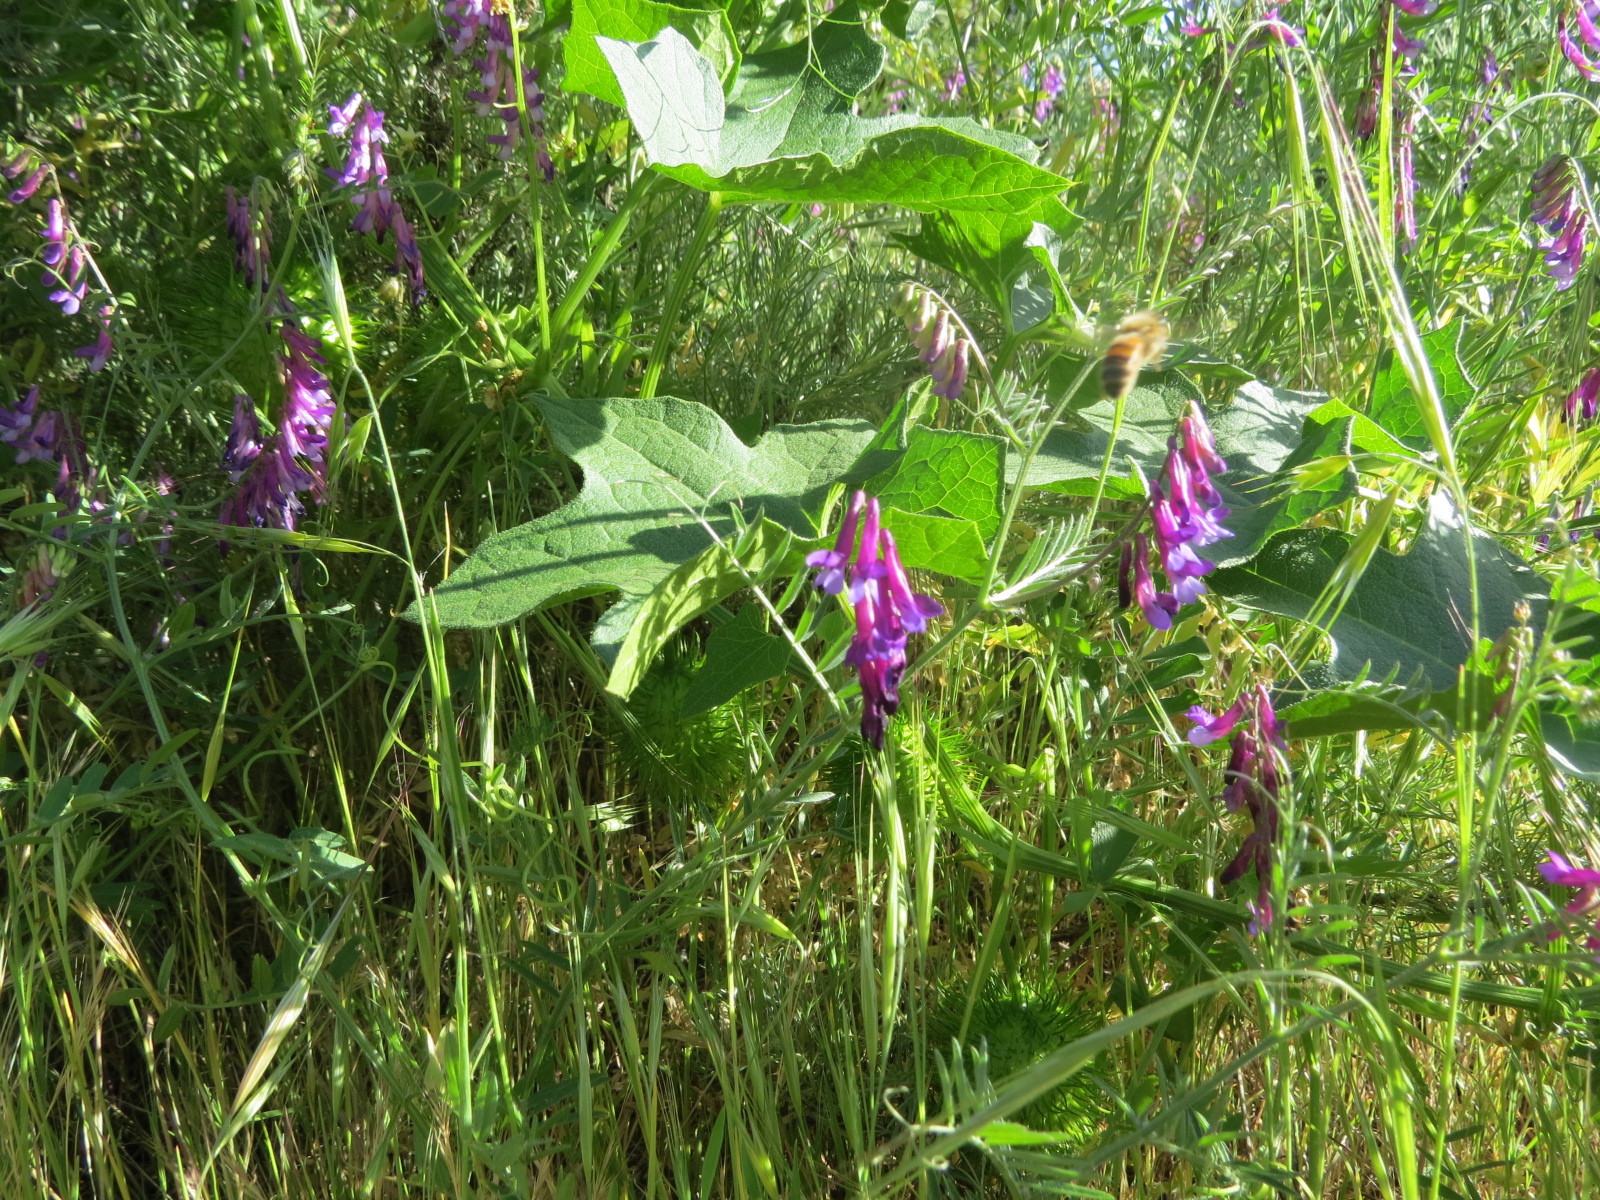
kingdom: Animalia
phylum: Arthropoda
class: Insecta
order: Hymenoptera
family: Apidae
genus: Apis
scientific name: Apis mellifera
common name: Honey bee
